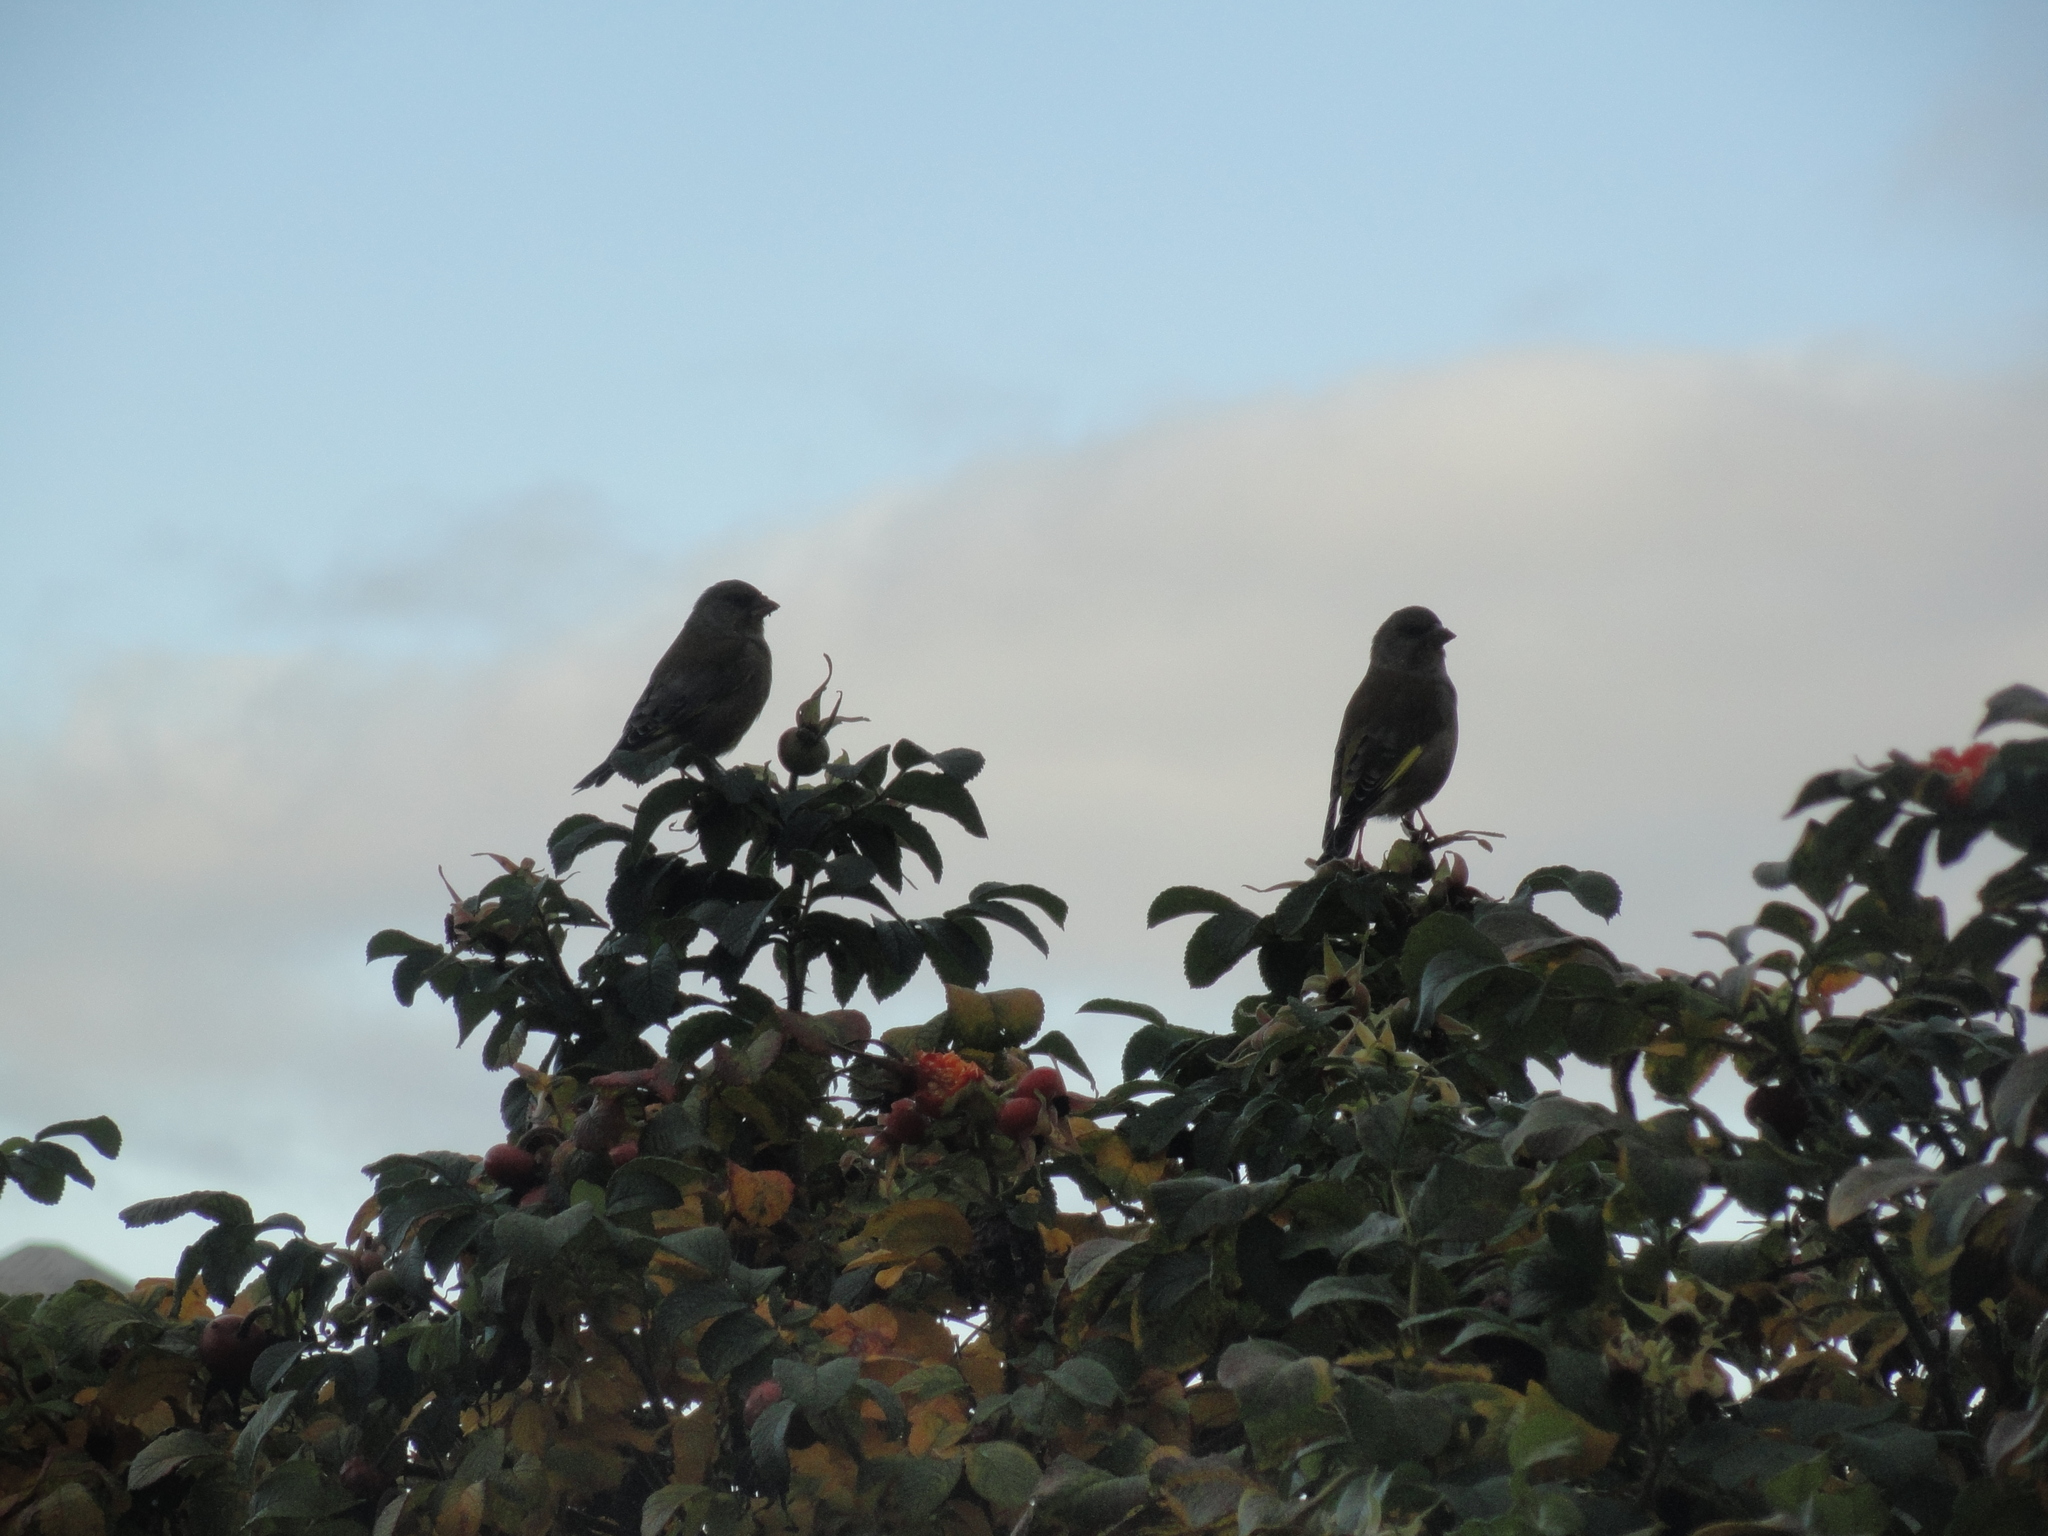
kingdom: Plantae
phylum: Tracheophyta
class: Liliopsida
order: Poales
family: Poaceae
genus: Chloris
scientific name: Chloris chloris
